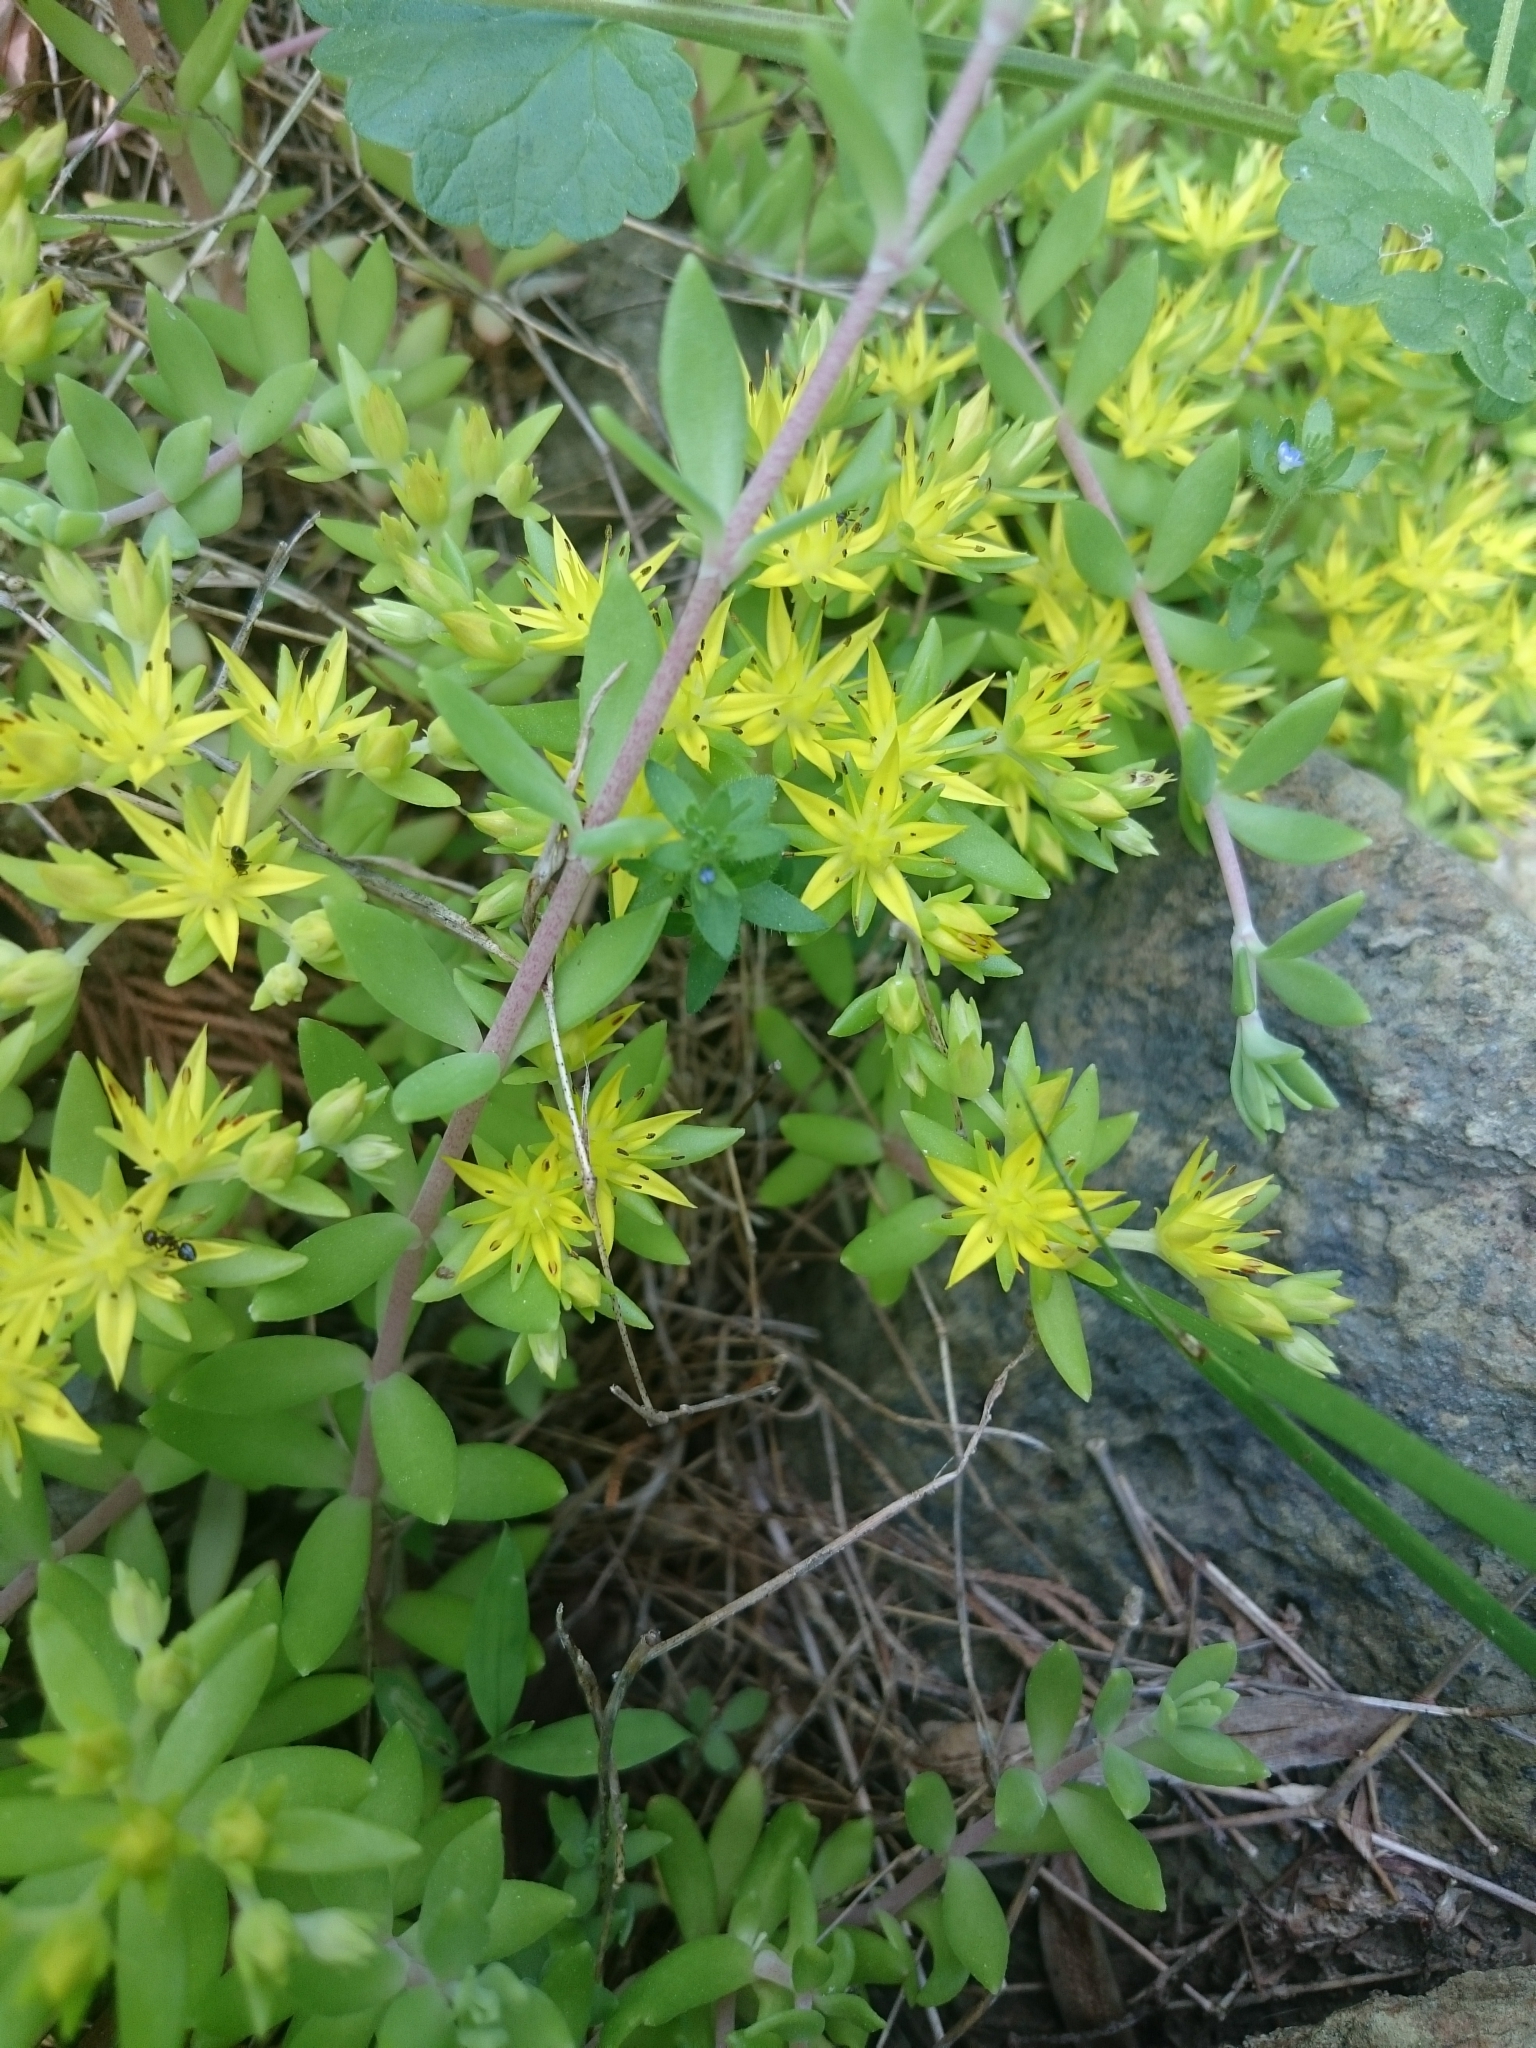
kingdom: Plantae
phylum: Tracheophyta
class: Magnoliopsida
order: Saxifragales
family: Crassulaceae
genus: Sedum
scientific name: Sedum sarmentosum
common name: Stringy stonecrop
